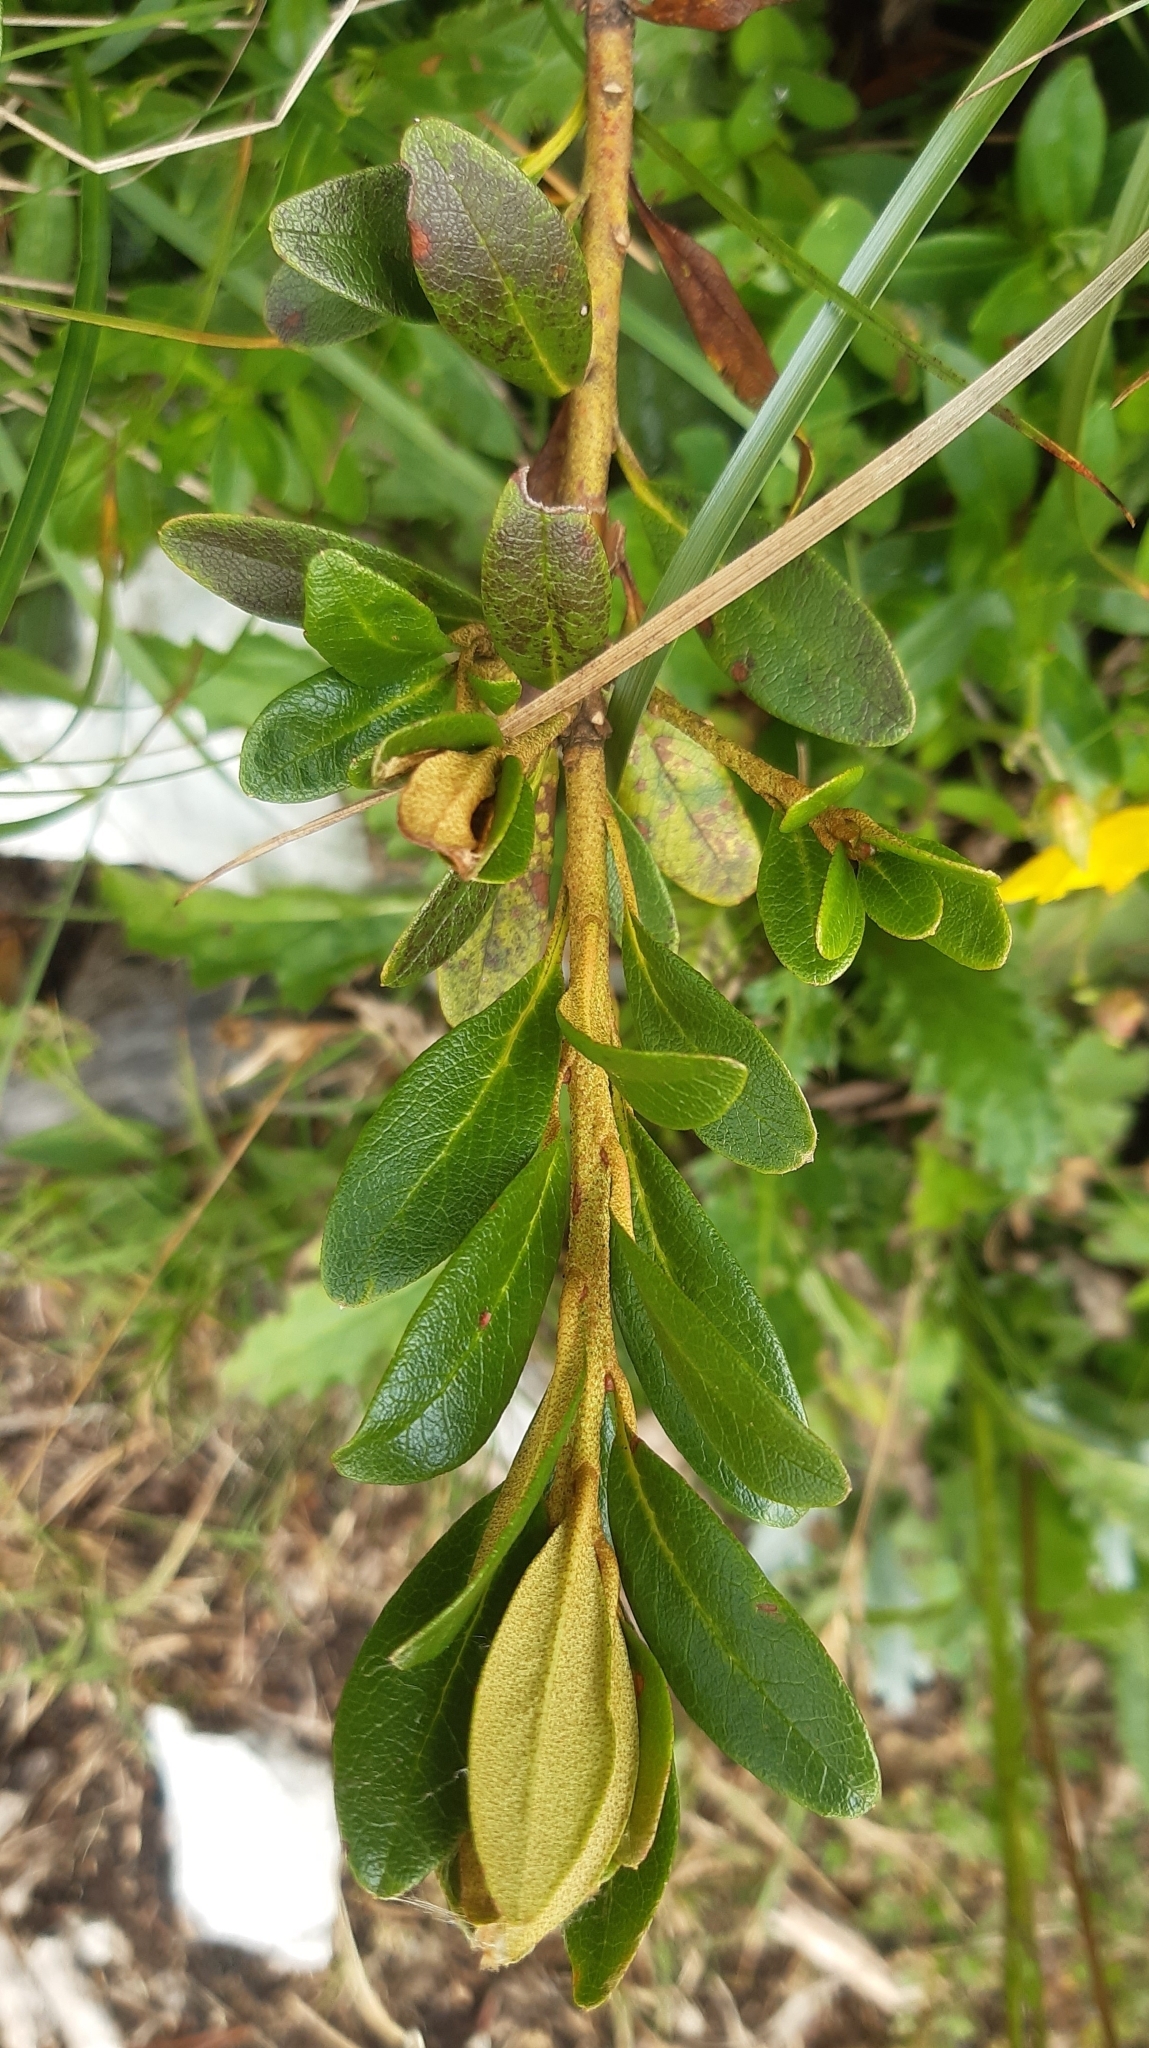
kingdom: Plantae
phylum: Tracheophyta
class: Magnoliopsida
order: Ericales
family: Ericaceae
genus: Rhododendron
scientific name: Rhododendron ferrugineum
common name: Alpenrose
